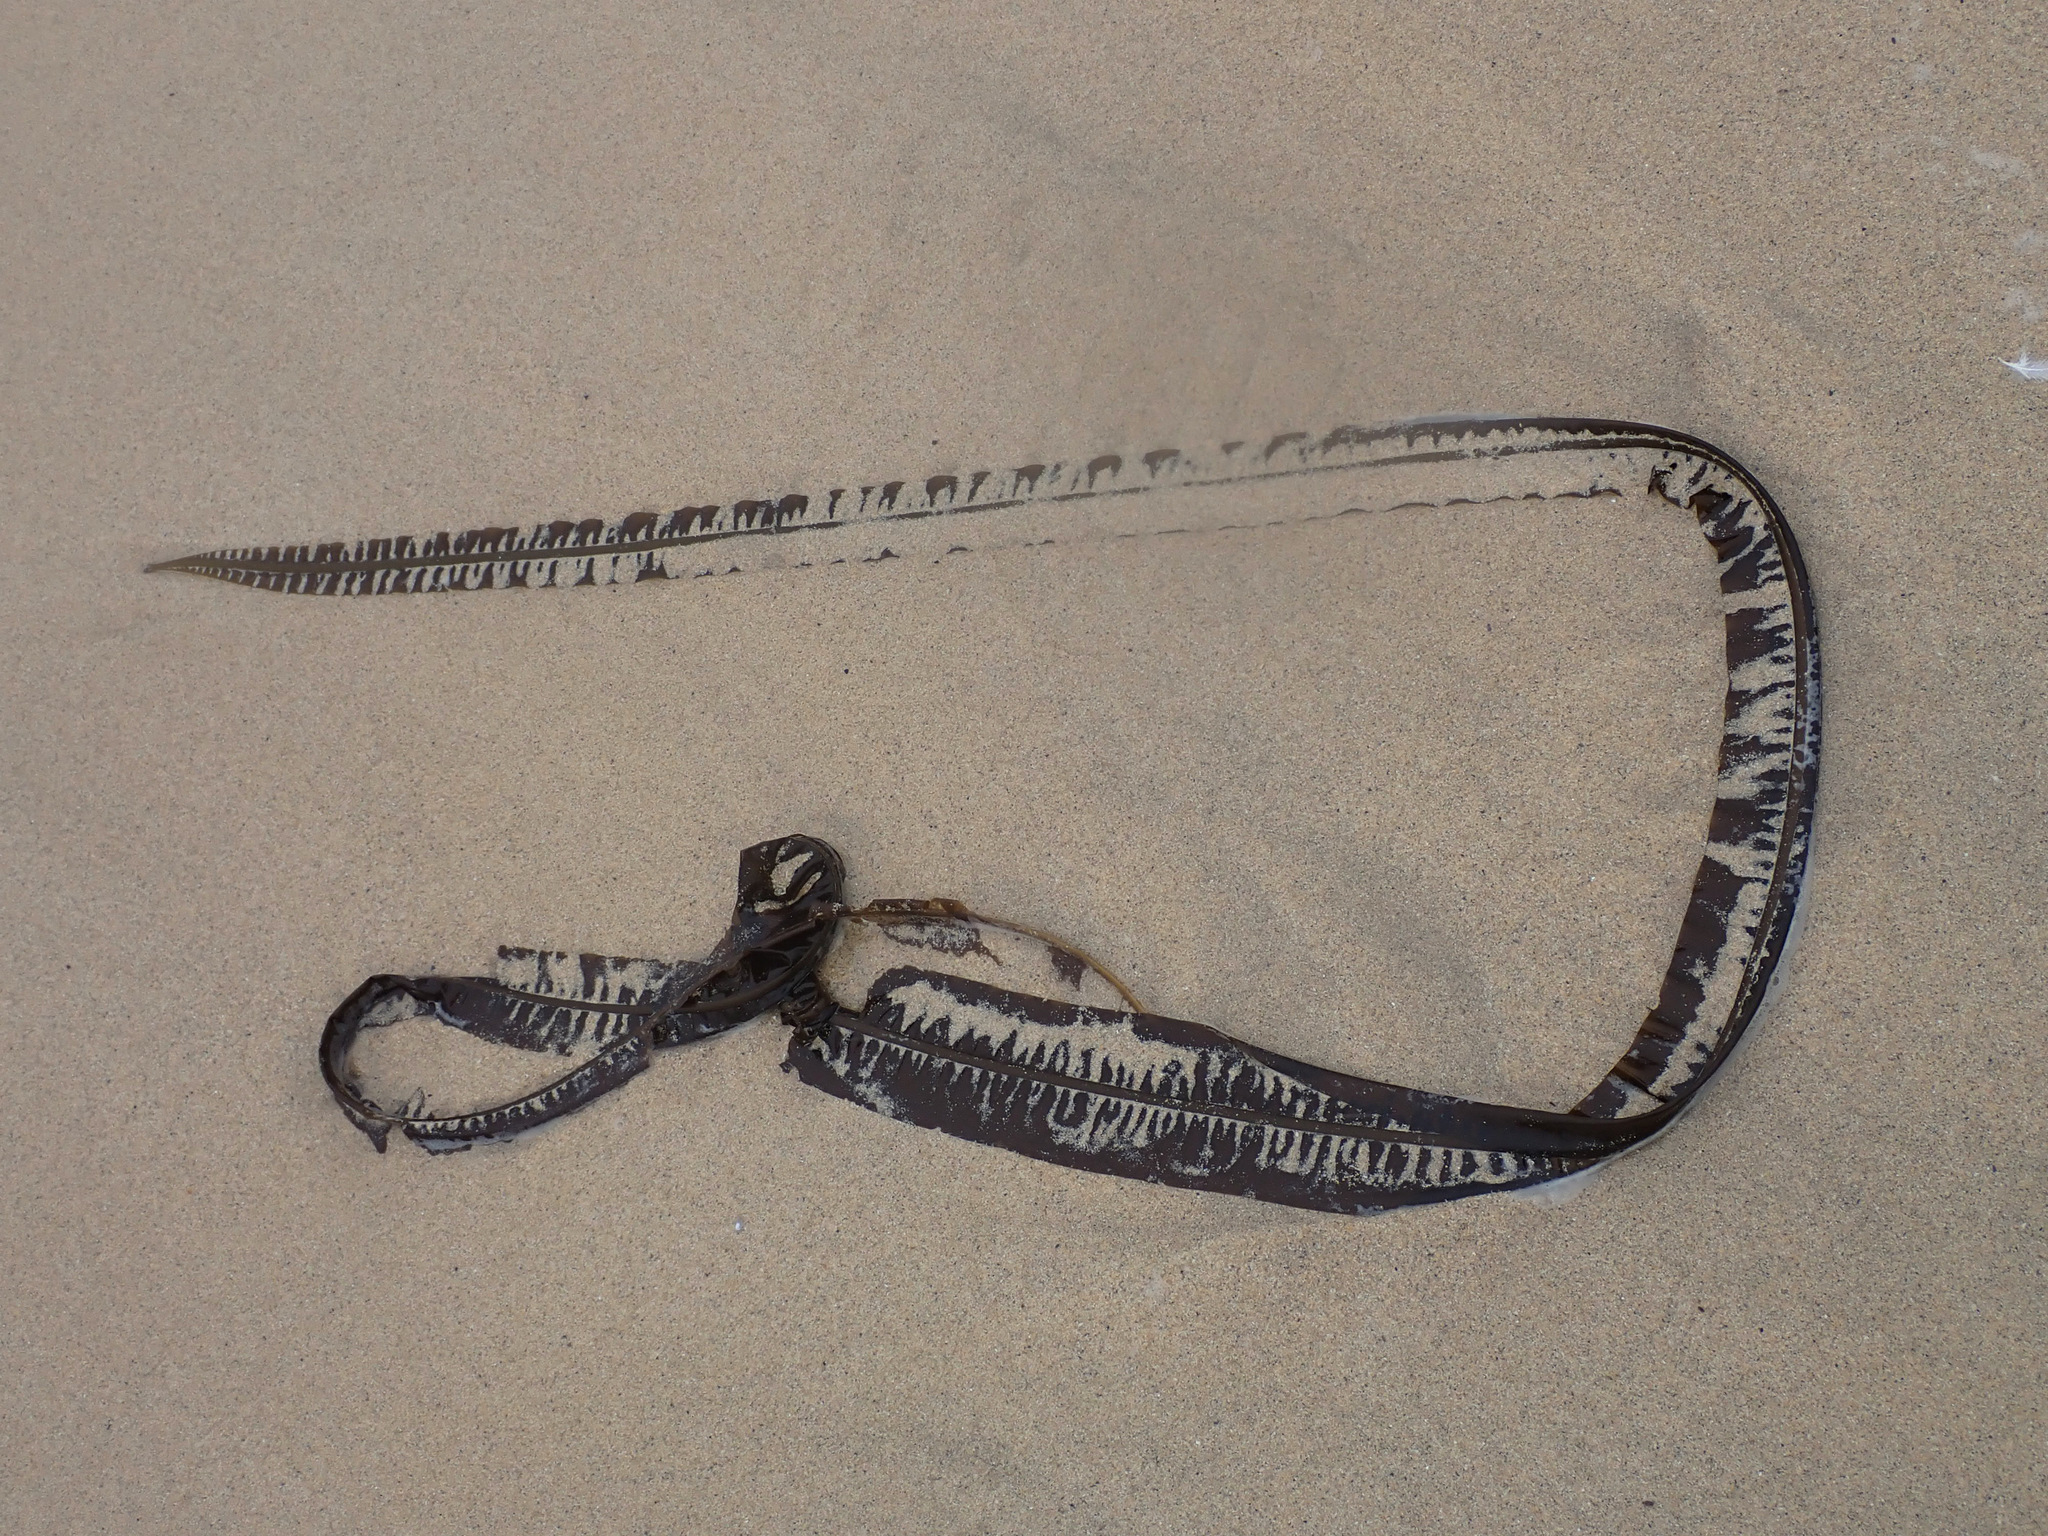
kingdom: Chromista
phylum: Ochrophyta
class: Phaeophyceae
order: Laminariales
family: Alariaceae
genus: Alaria
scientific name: Alaria esculenta
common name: Dabberlocks
